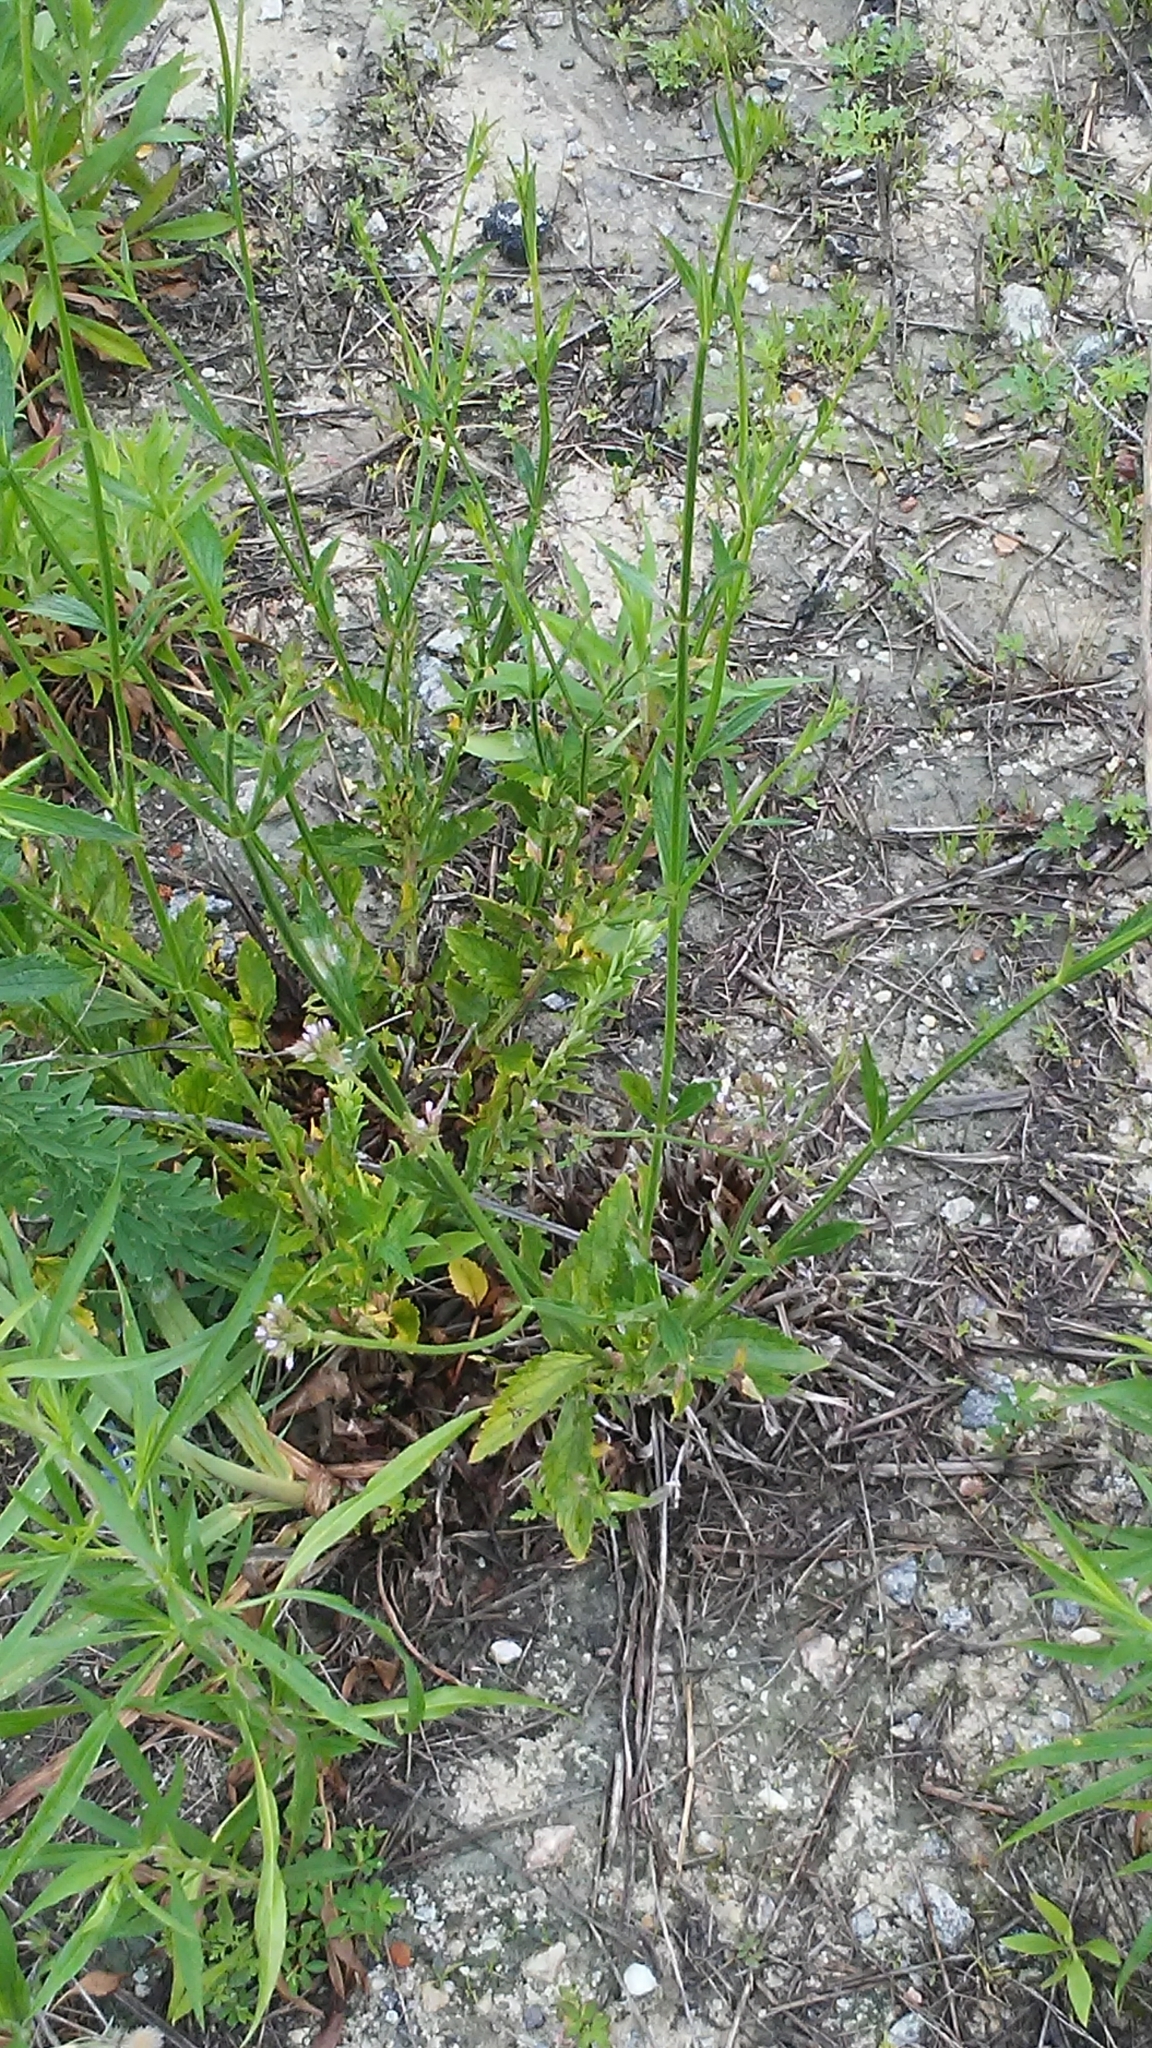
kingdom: Plantae
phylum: Tracheophyta
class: Magnoliopsida
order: Lamiales
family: Verbenaceae
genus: Verbena
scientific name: Verbena brasiliensis
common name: Brazilian vervain
